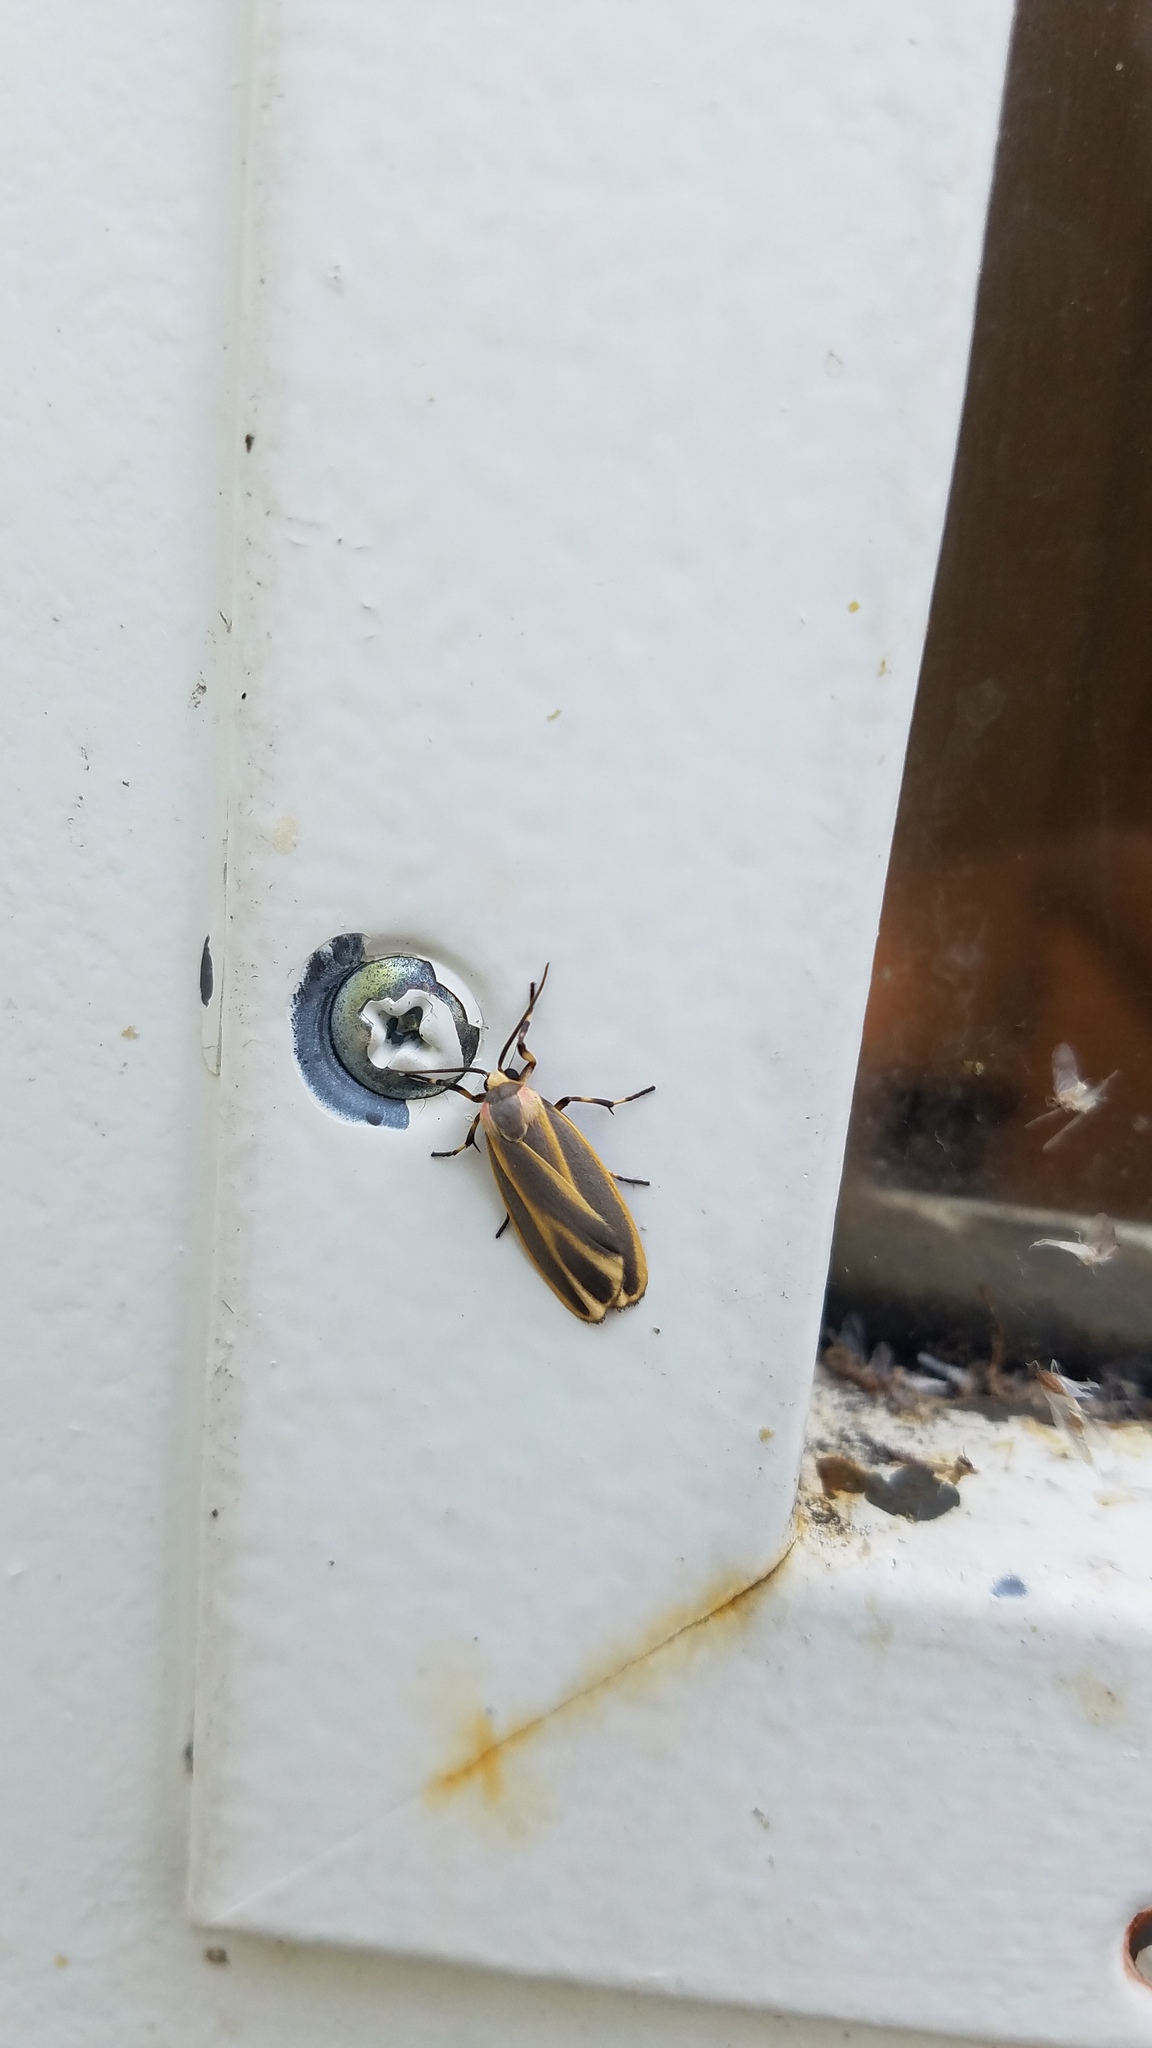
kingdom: Animalia
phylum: Arthropoda
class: Insecta
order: Lepidoptera
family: Erebidae
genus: Hypoprepia
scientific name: Hypoprepia fucosa
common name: Painted lichen moth
